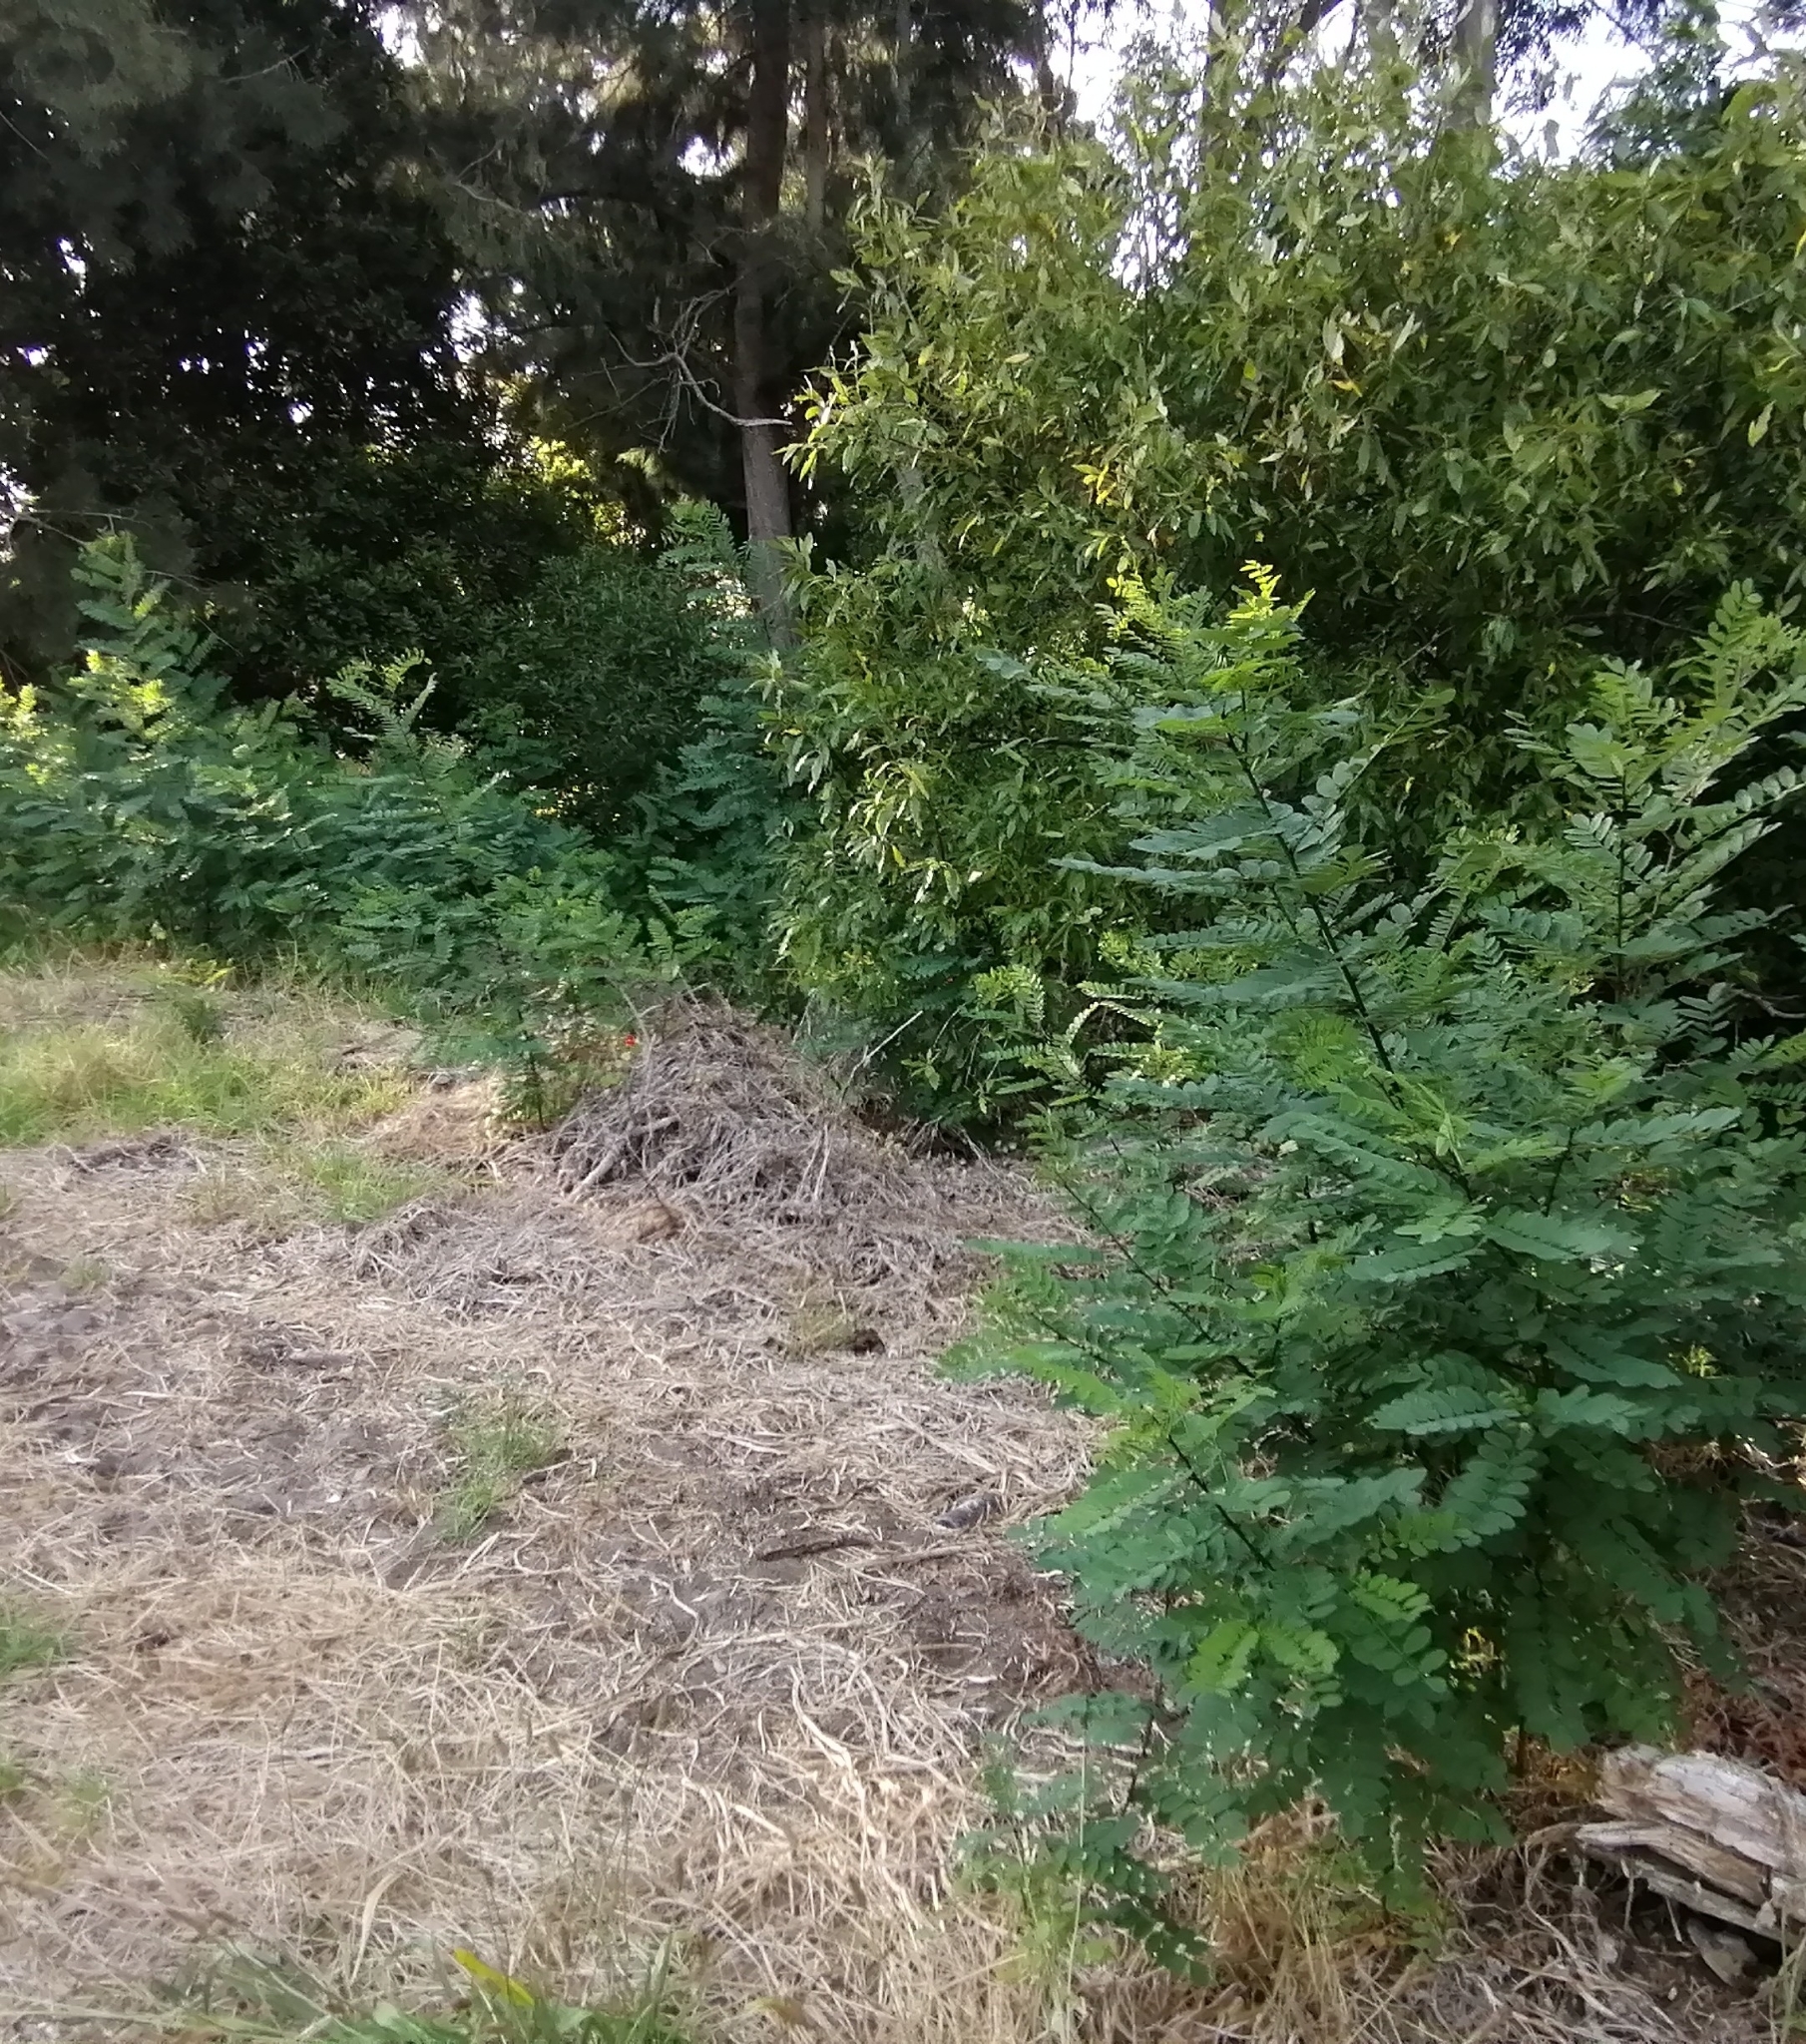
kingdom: Plantae
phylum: Tracheophyta
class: Magnoliopsida
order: Fabales
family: Fabaceae
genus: Robinia
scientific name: Robinia pseudoacacia
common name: Black locust
